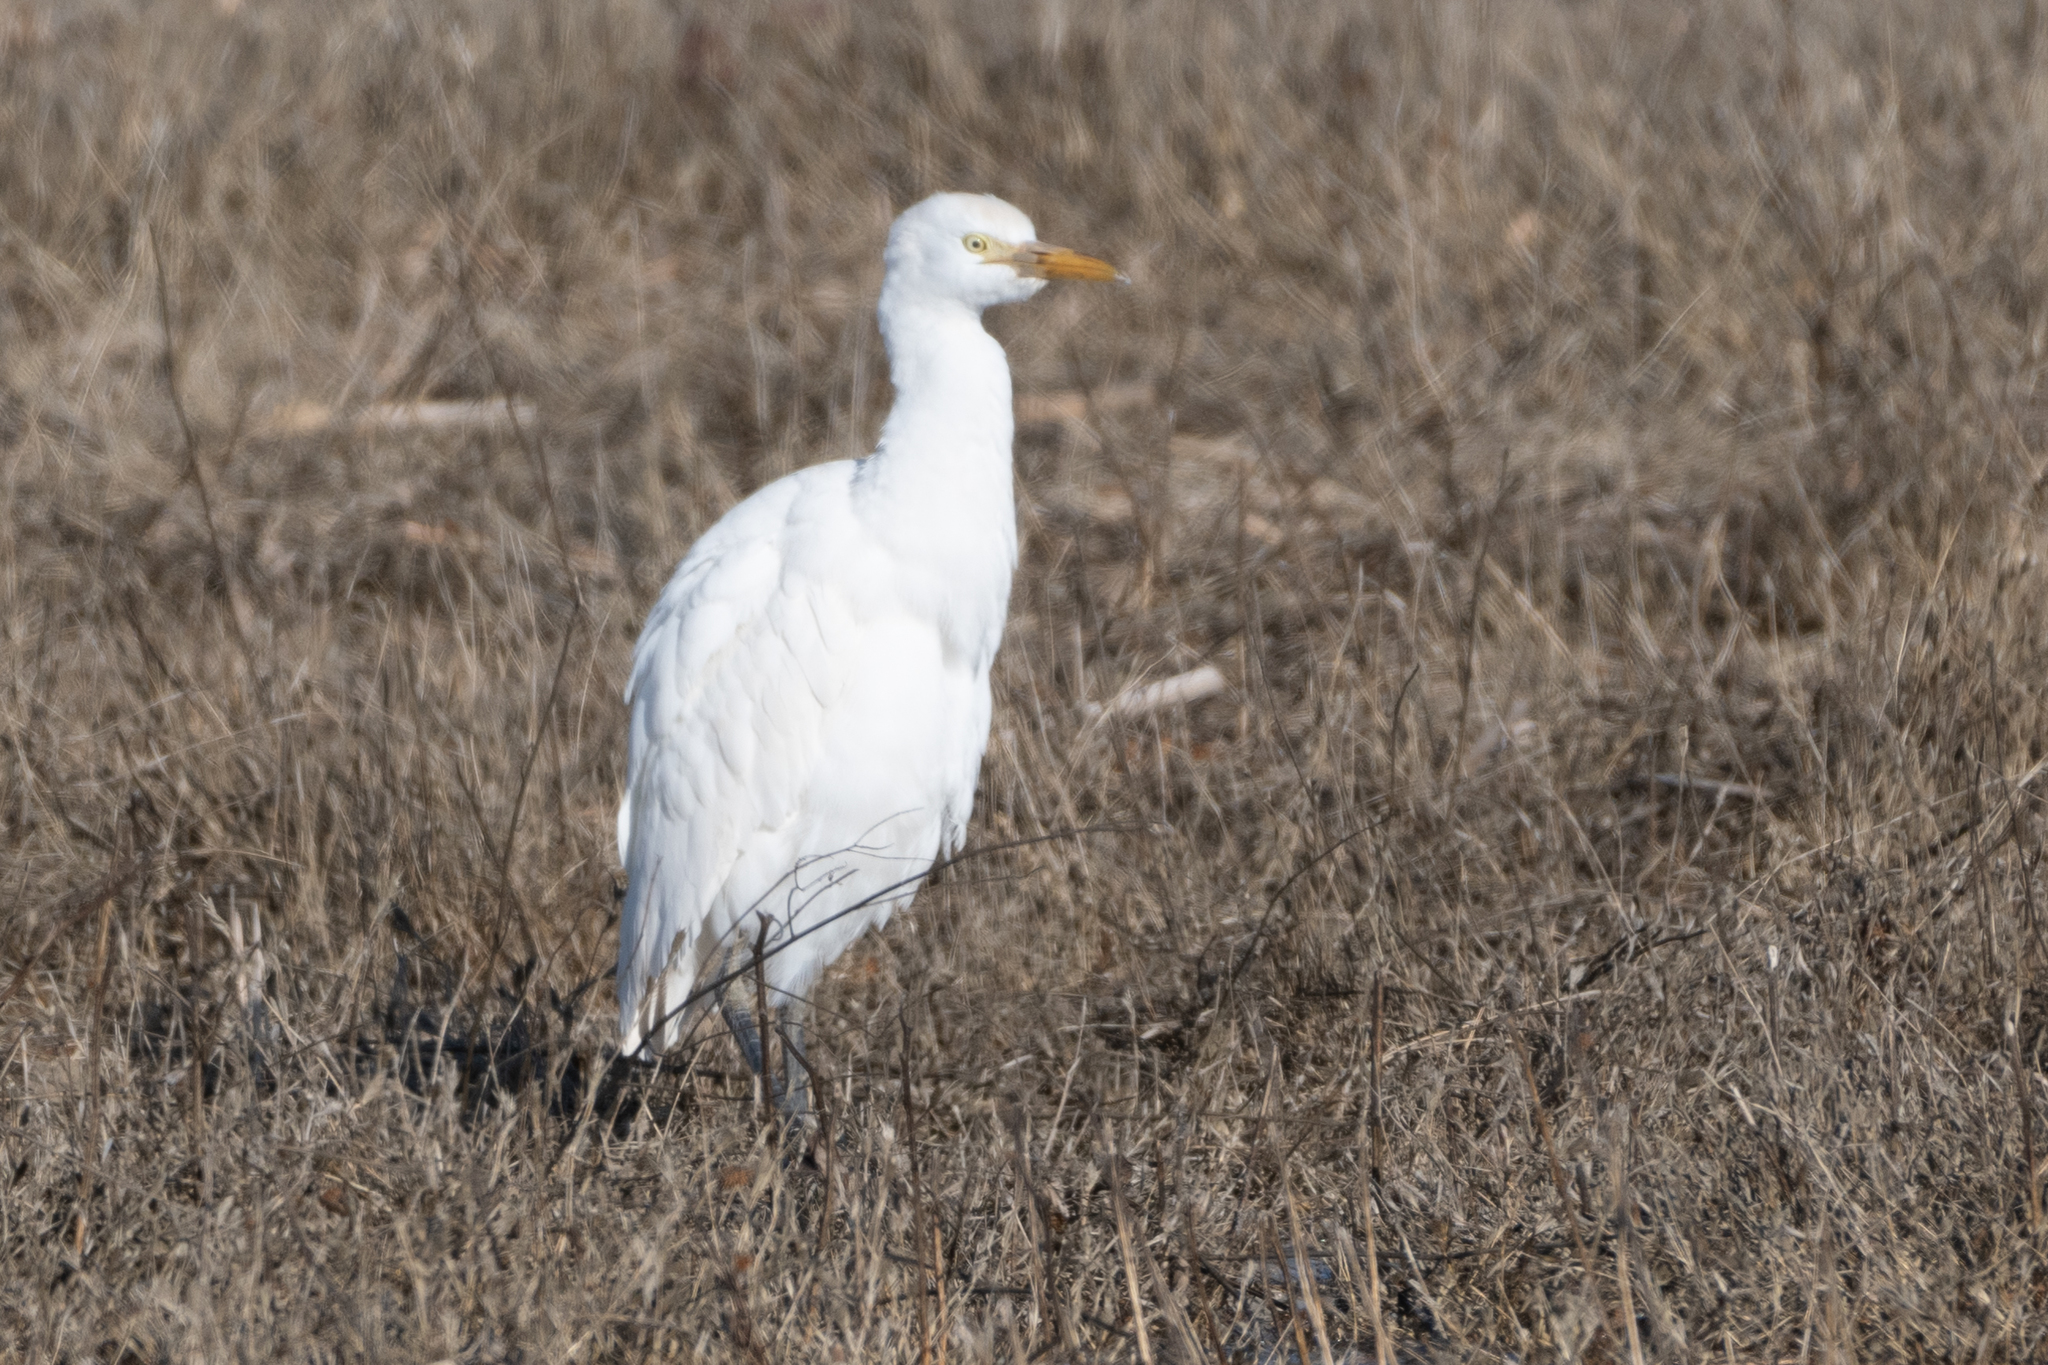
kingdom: Animalia
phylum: Chordata
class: Aves
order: Pelecaniformes
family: Ardeidae
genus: Bubulcus
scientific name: Bubulcus ibis
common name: Cattle egret
